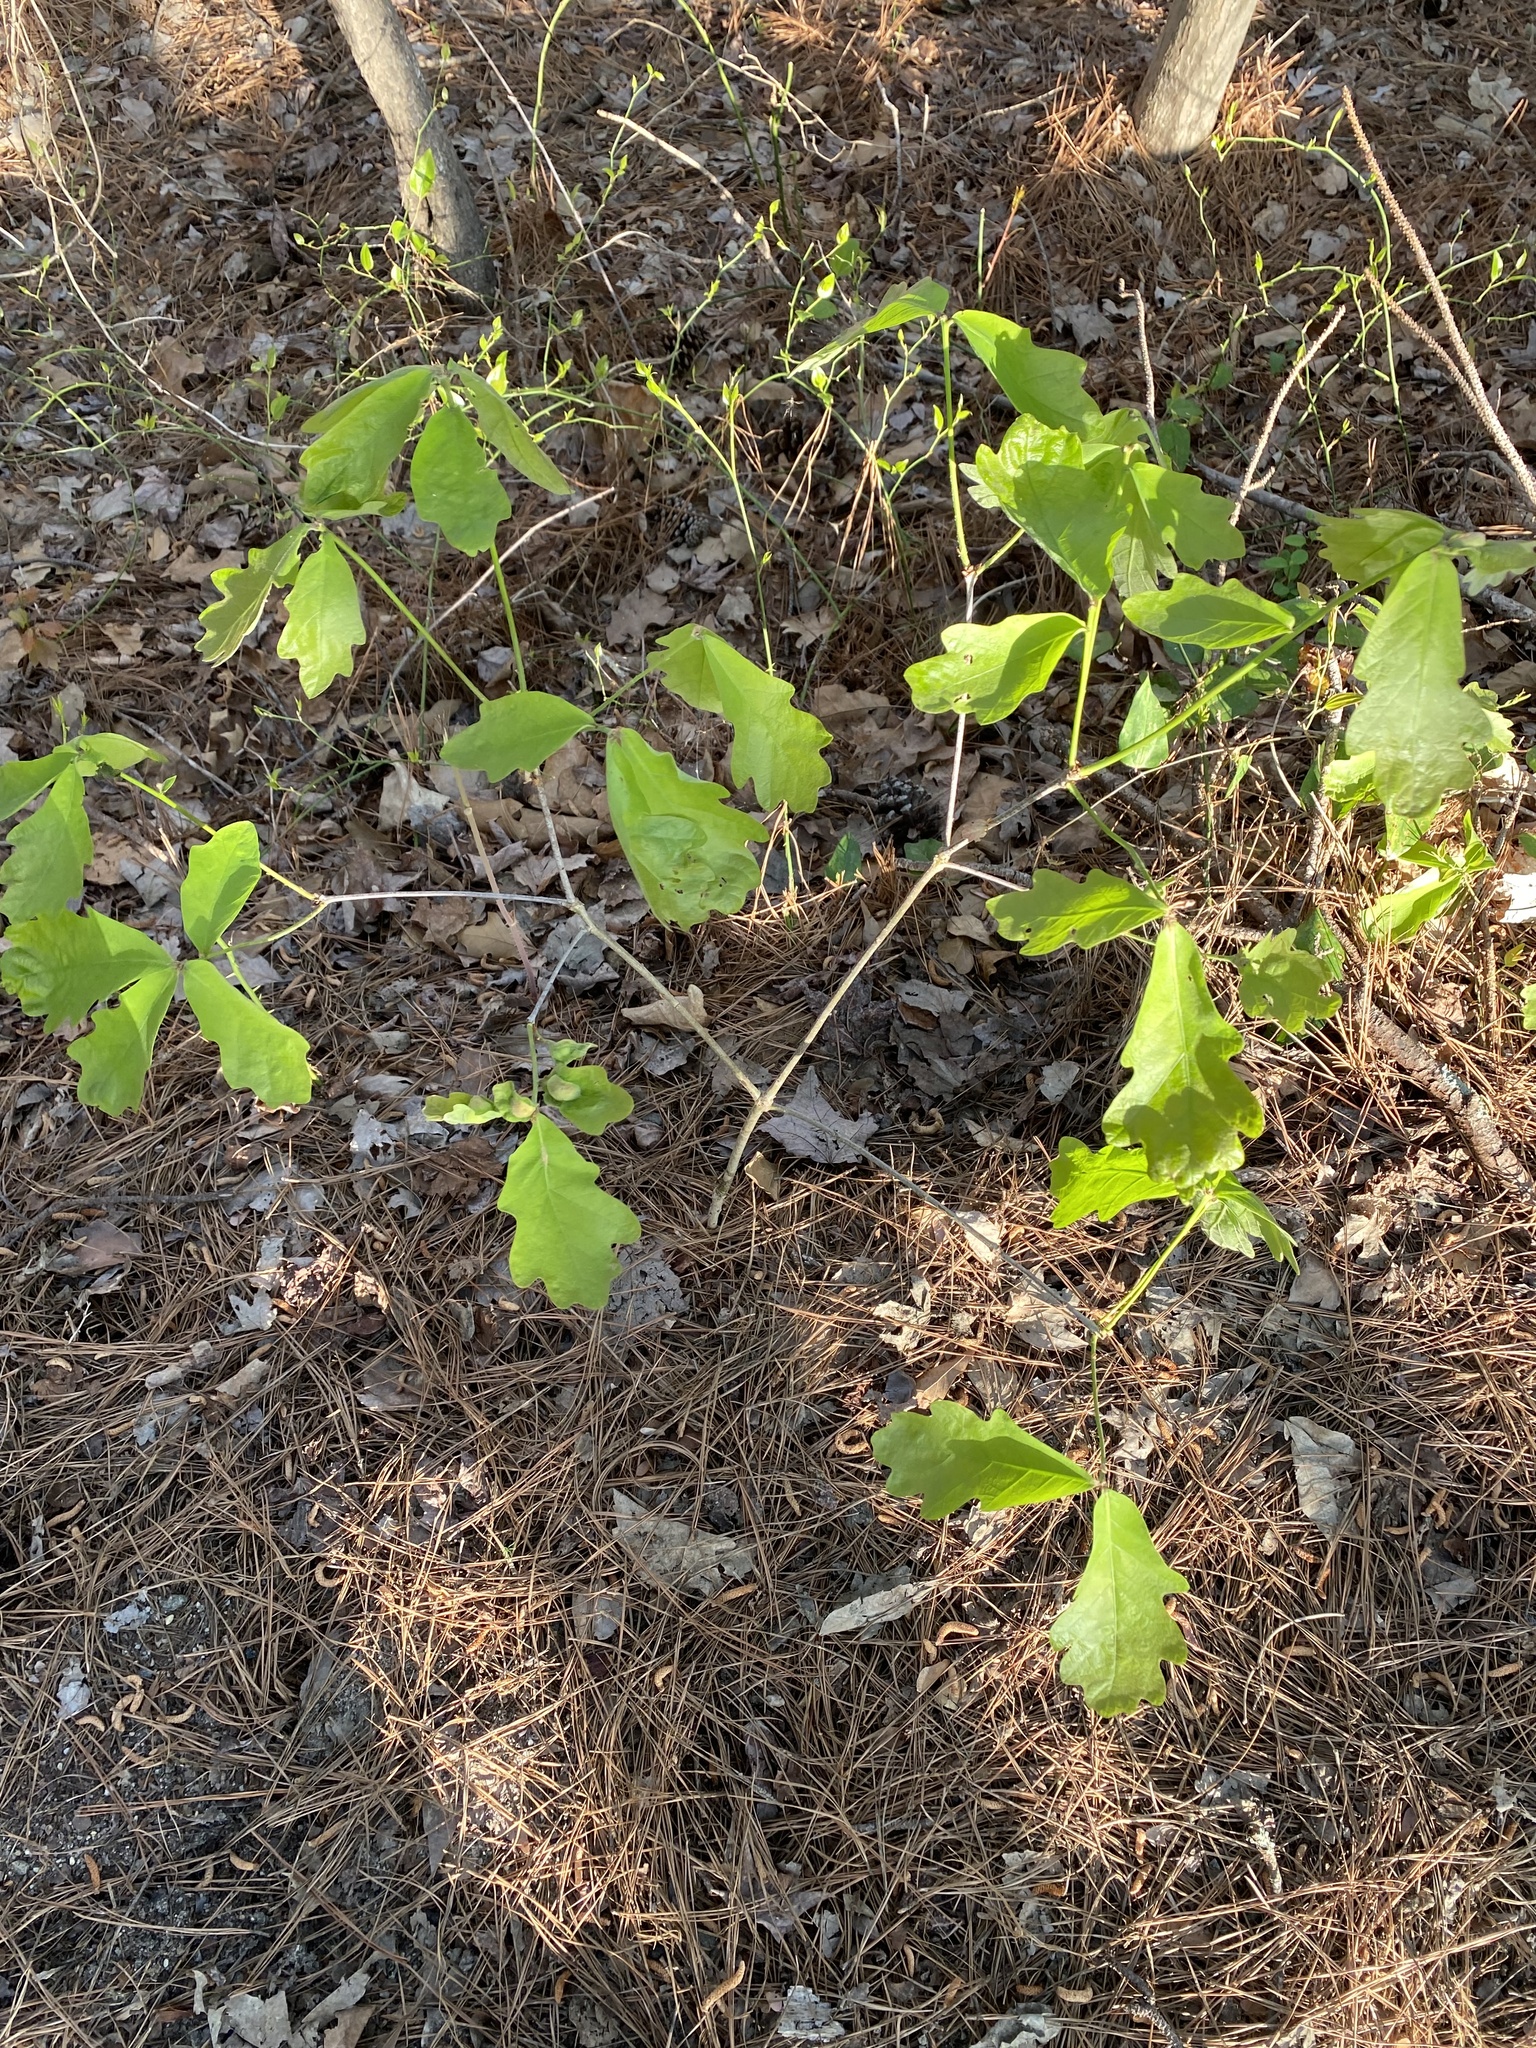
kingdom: Animalia
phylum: Arthropoda
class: Insecta
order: Hymenoptera
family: Cynipidae
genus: Andricus
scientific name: Andricus
